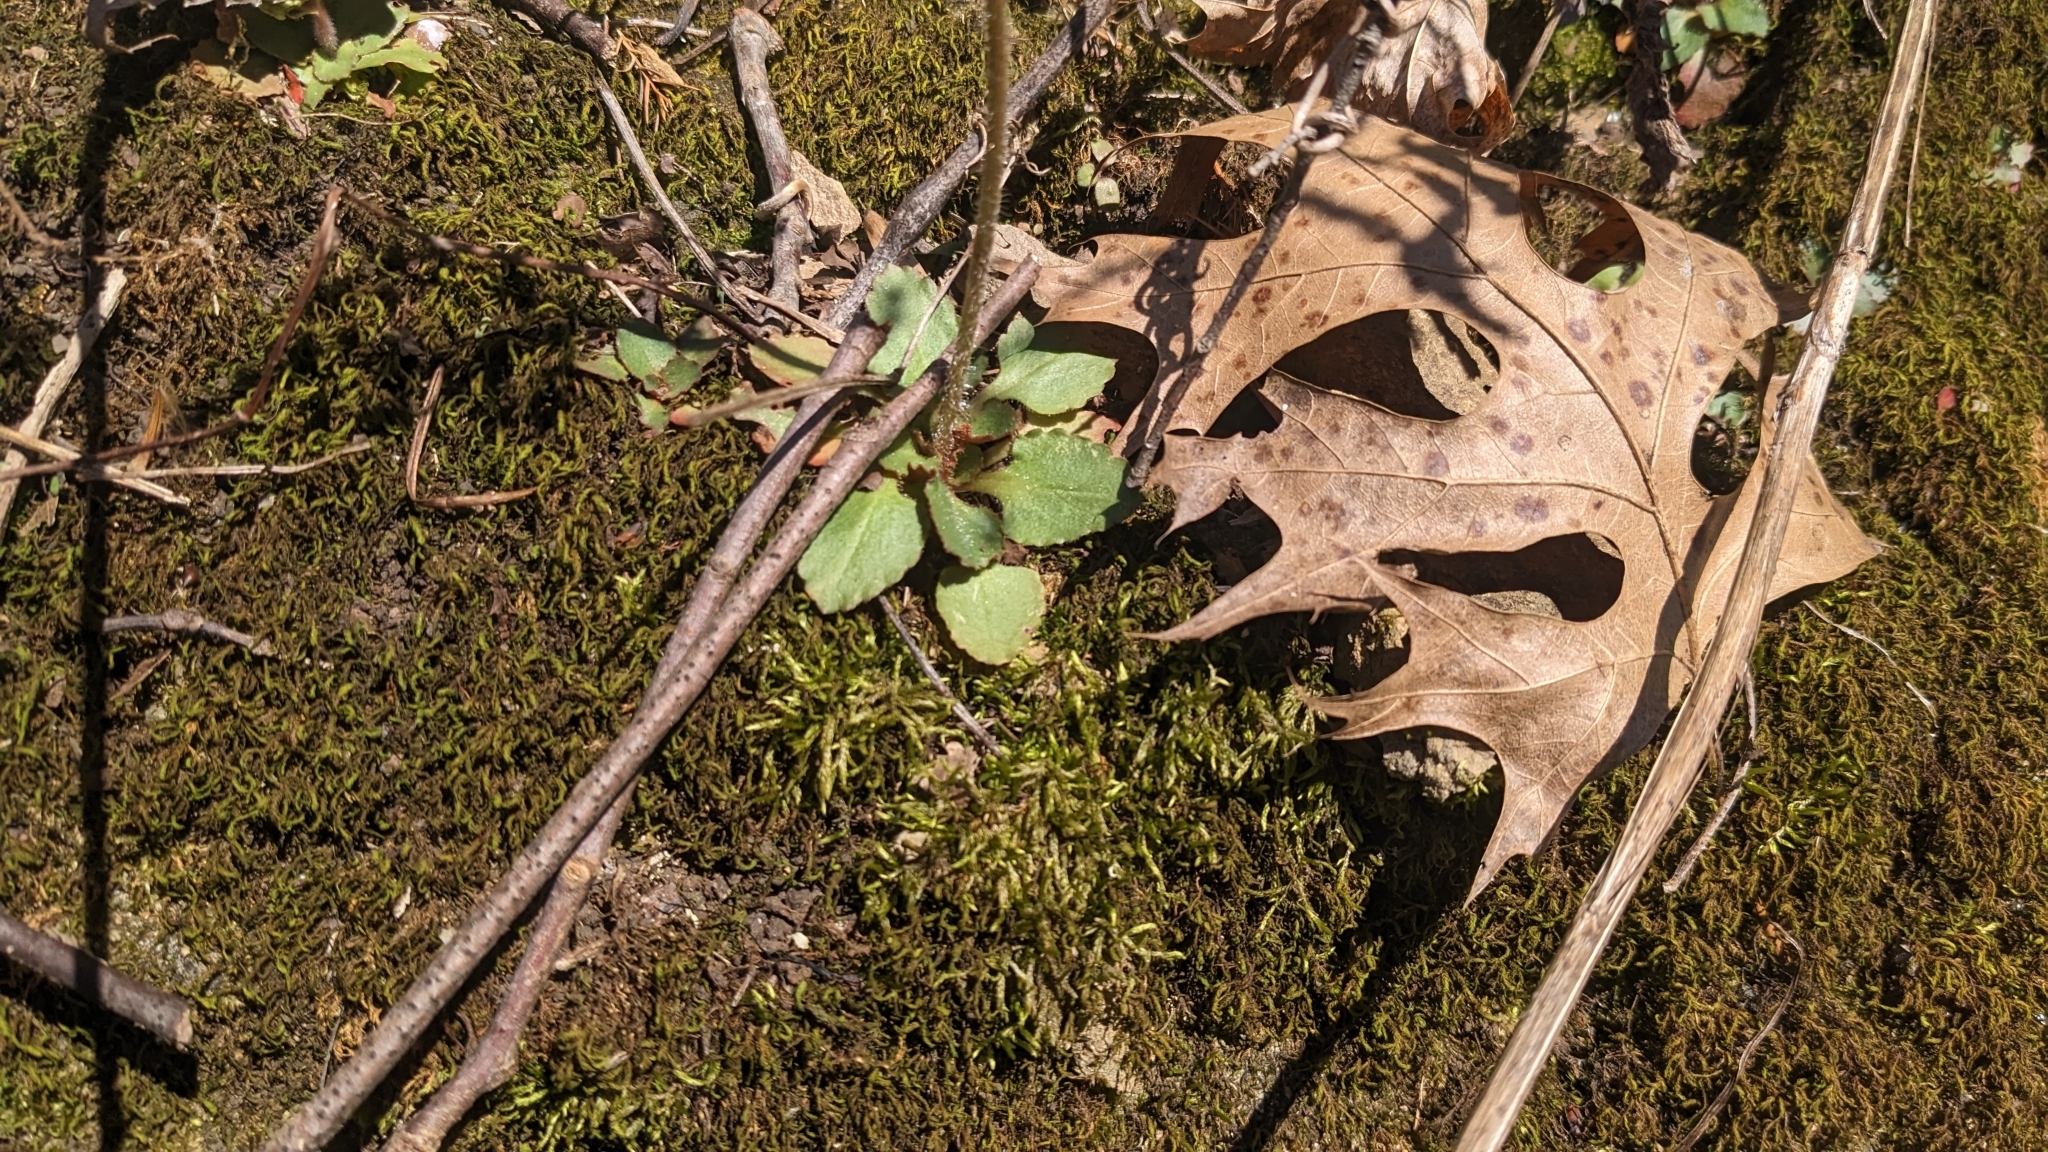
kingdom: Plantae
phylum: Tracheophyta
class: Magnoliopsida
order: Saxifragales
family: Saxifragaceae
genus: Micranthes
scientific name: Micranthes virginiensis
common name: Early saxifrage
